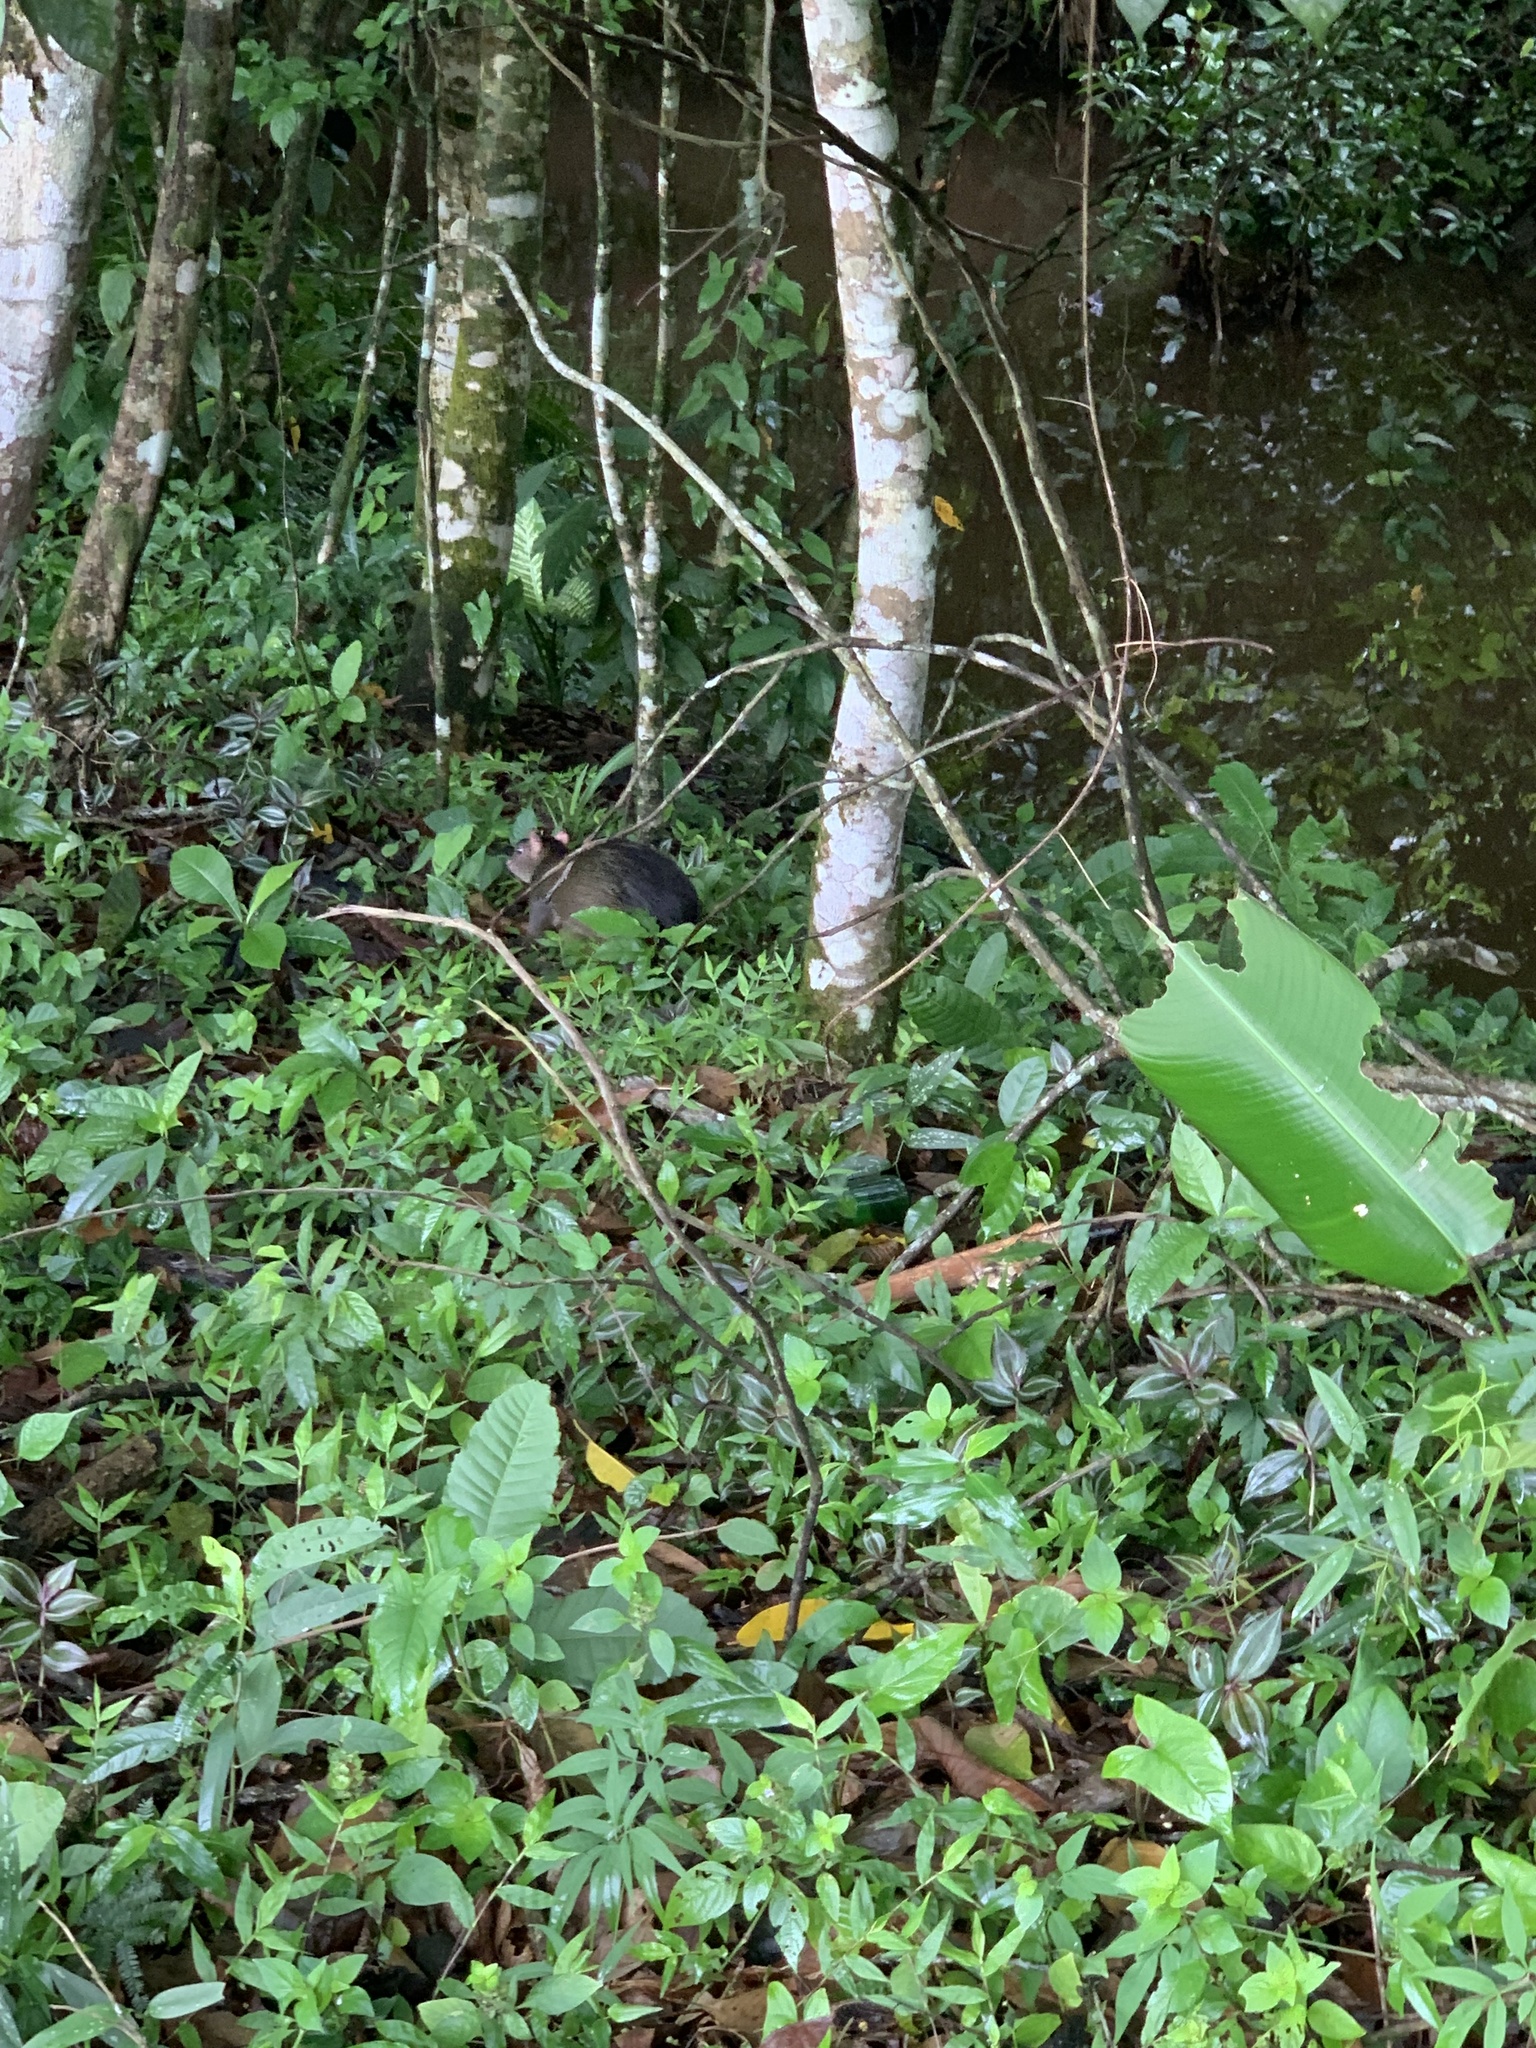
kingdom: Animalia
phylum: Chordata
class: Mammalia
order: Rodentia
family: Dasyproctidae
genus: Dasyprocta
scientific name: Dasyprocta punctata
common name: Central american agouti
